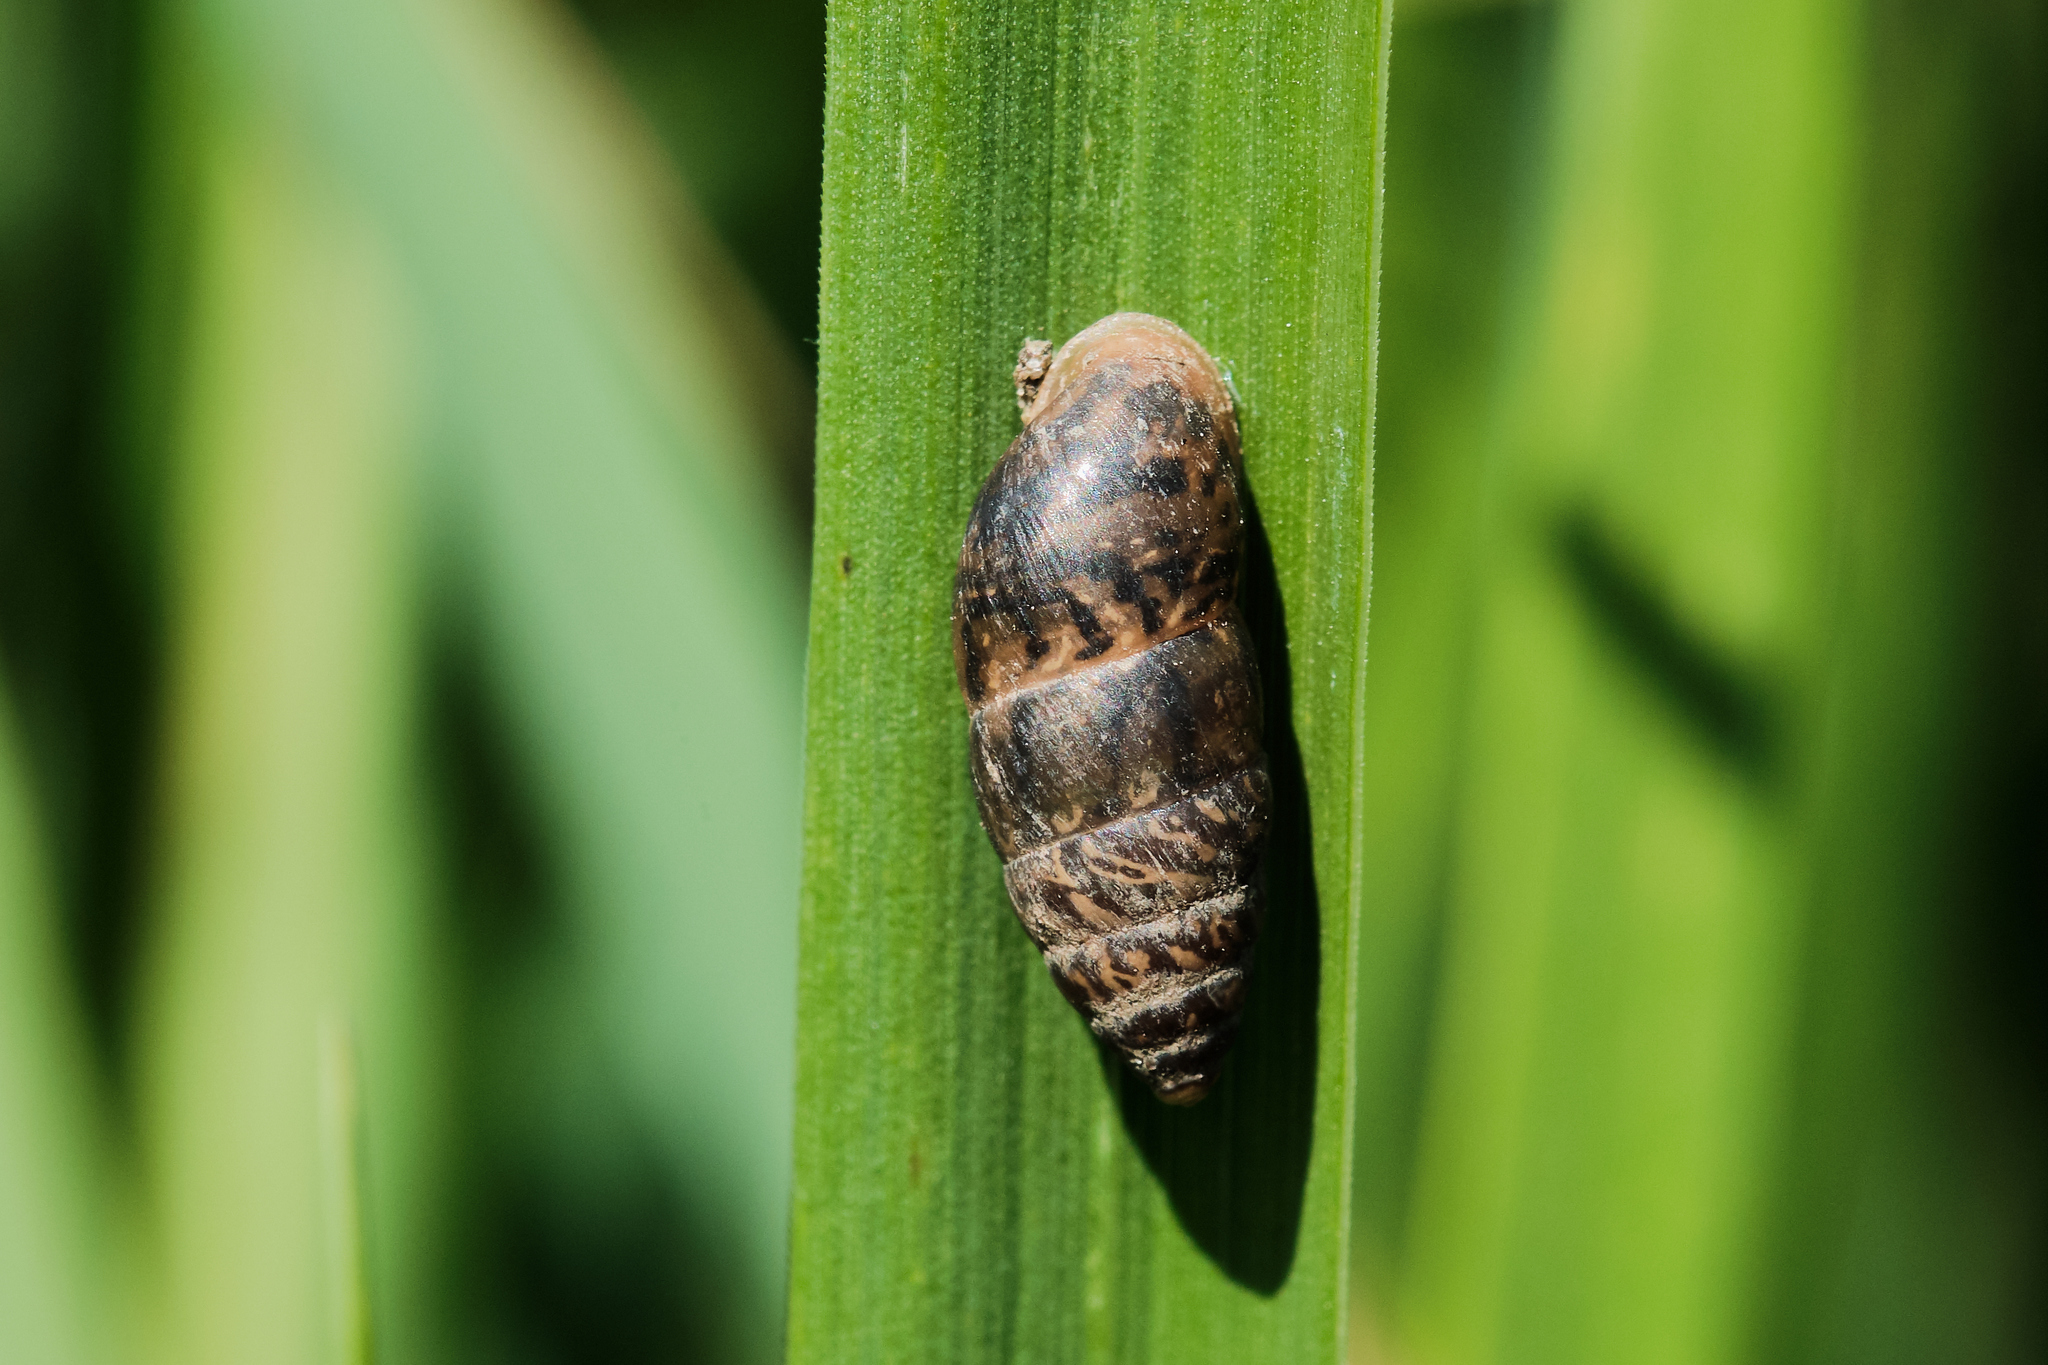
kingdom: Animalia
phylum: Mollusca
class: Gastropoda
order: Stylommatophora
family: Enidae
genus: Chondrula
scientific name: Chondrula tridens
